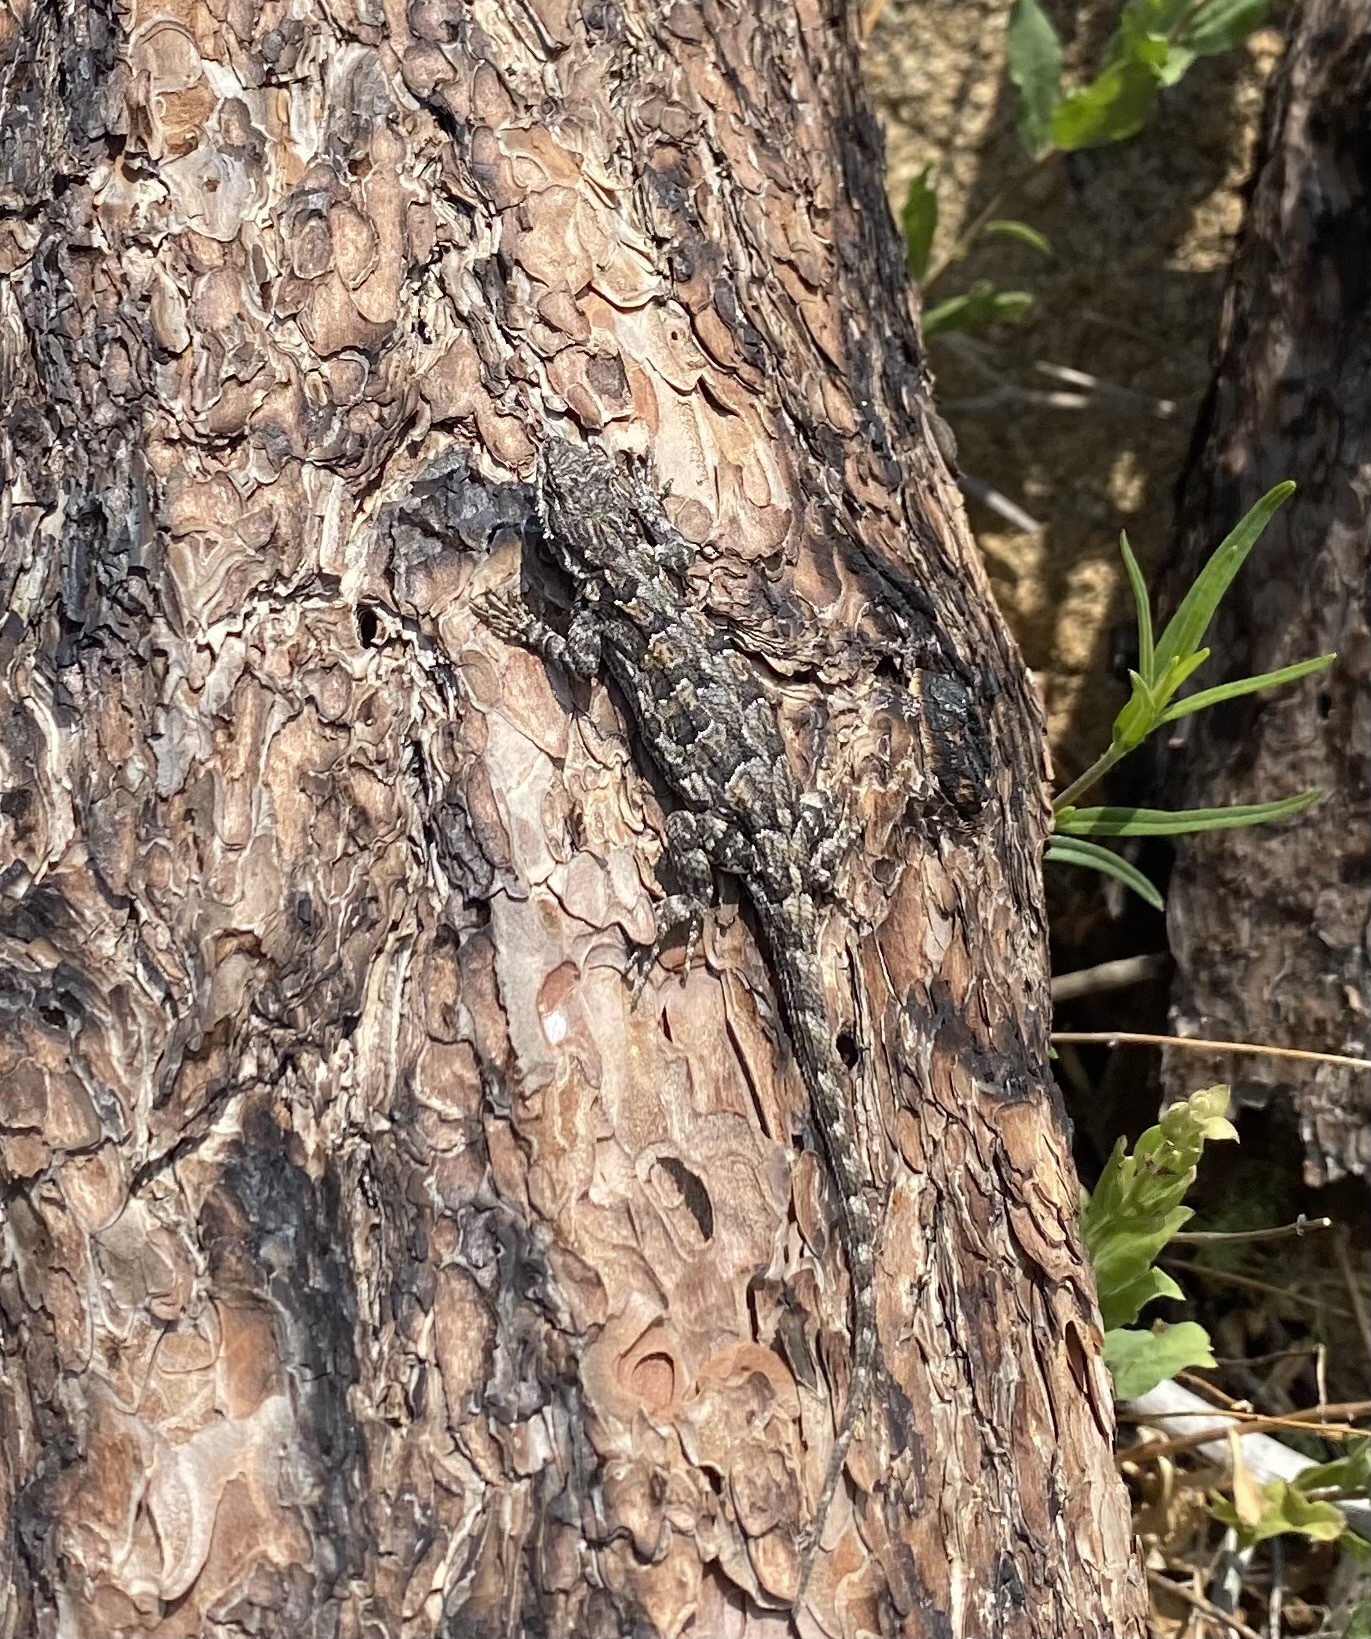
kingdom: Animalia
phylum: Chordata
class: Squamata
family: Phrynosomatidae
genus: Urosaurus
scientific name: Urosaurus ornatus
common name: Ornate tree lizard
